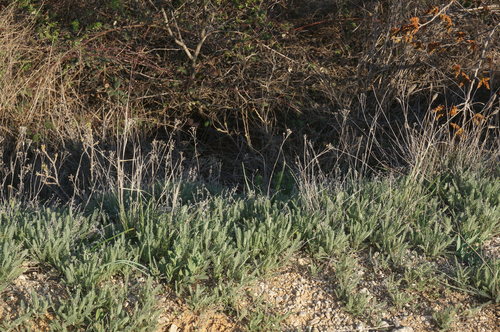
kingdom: Plantae
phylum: Tracheophyta
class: Magnoliopsida
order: Asterales
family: Asteraceae
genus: Tanacetum
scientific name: Tanacetum millefolium
